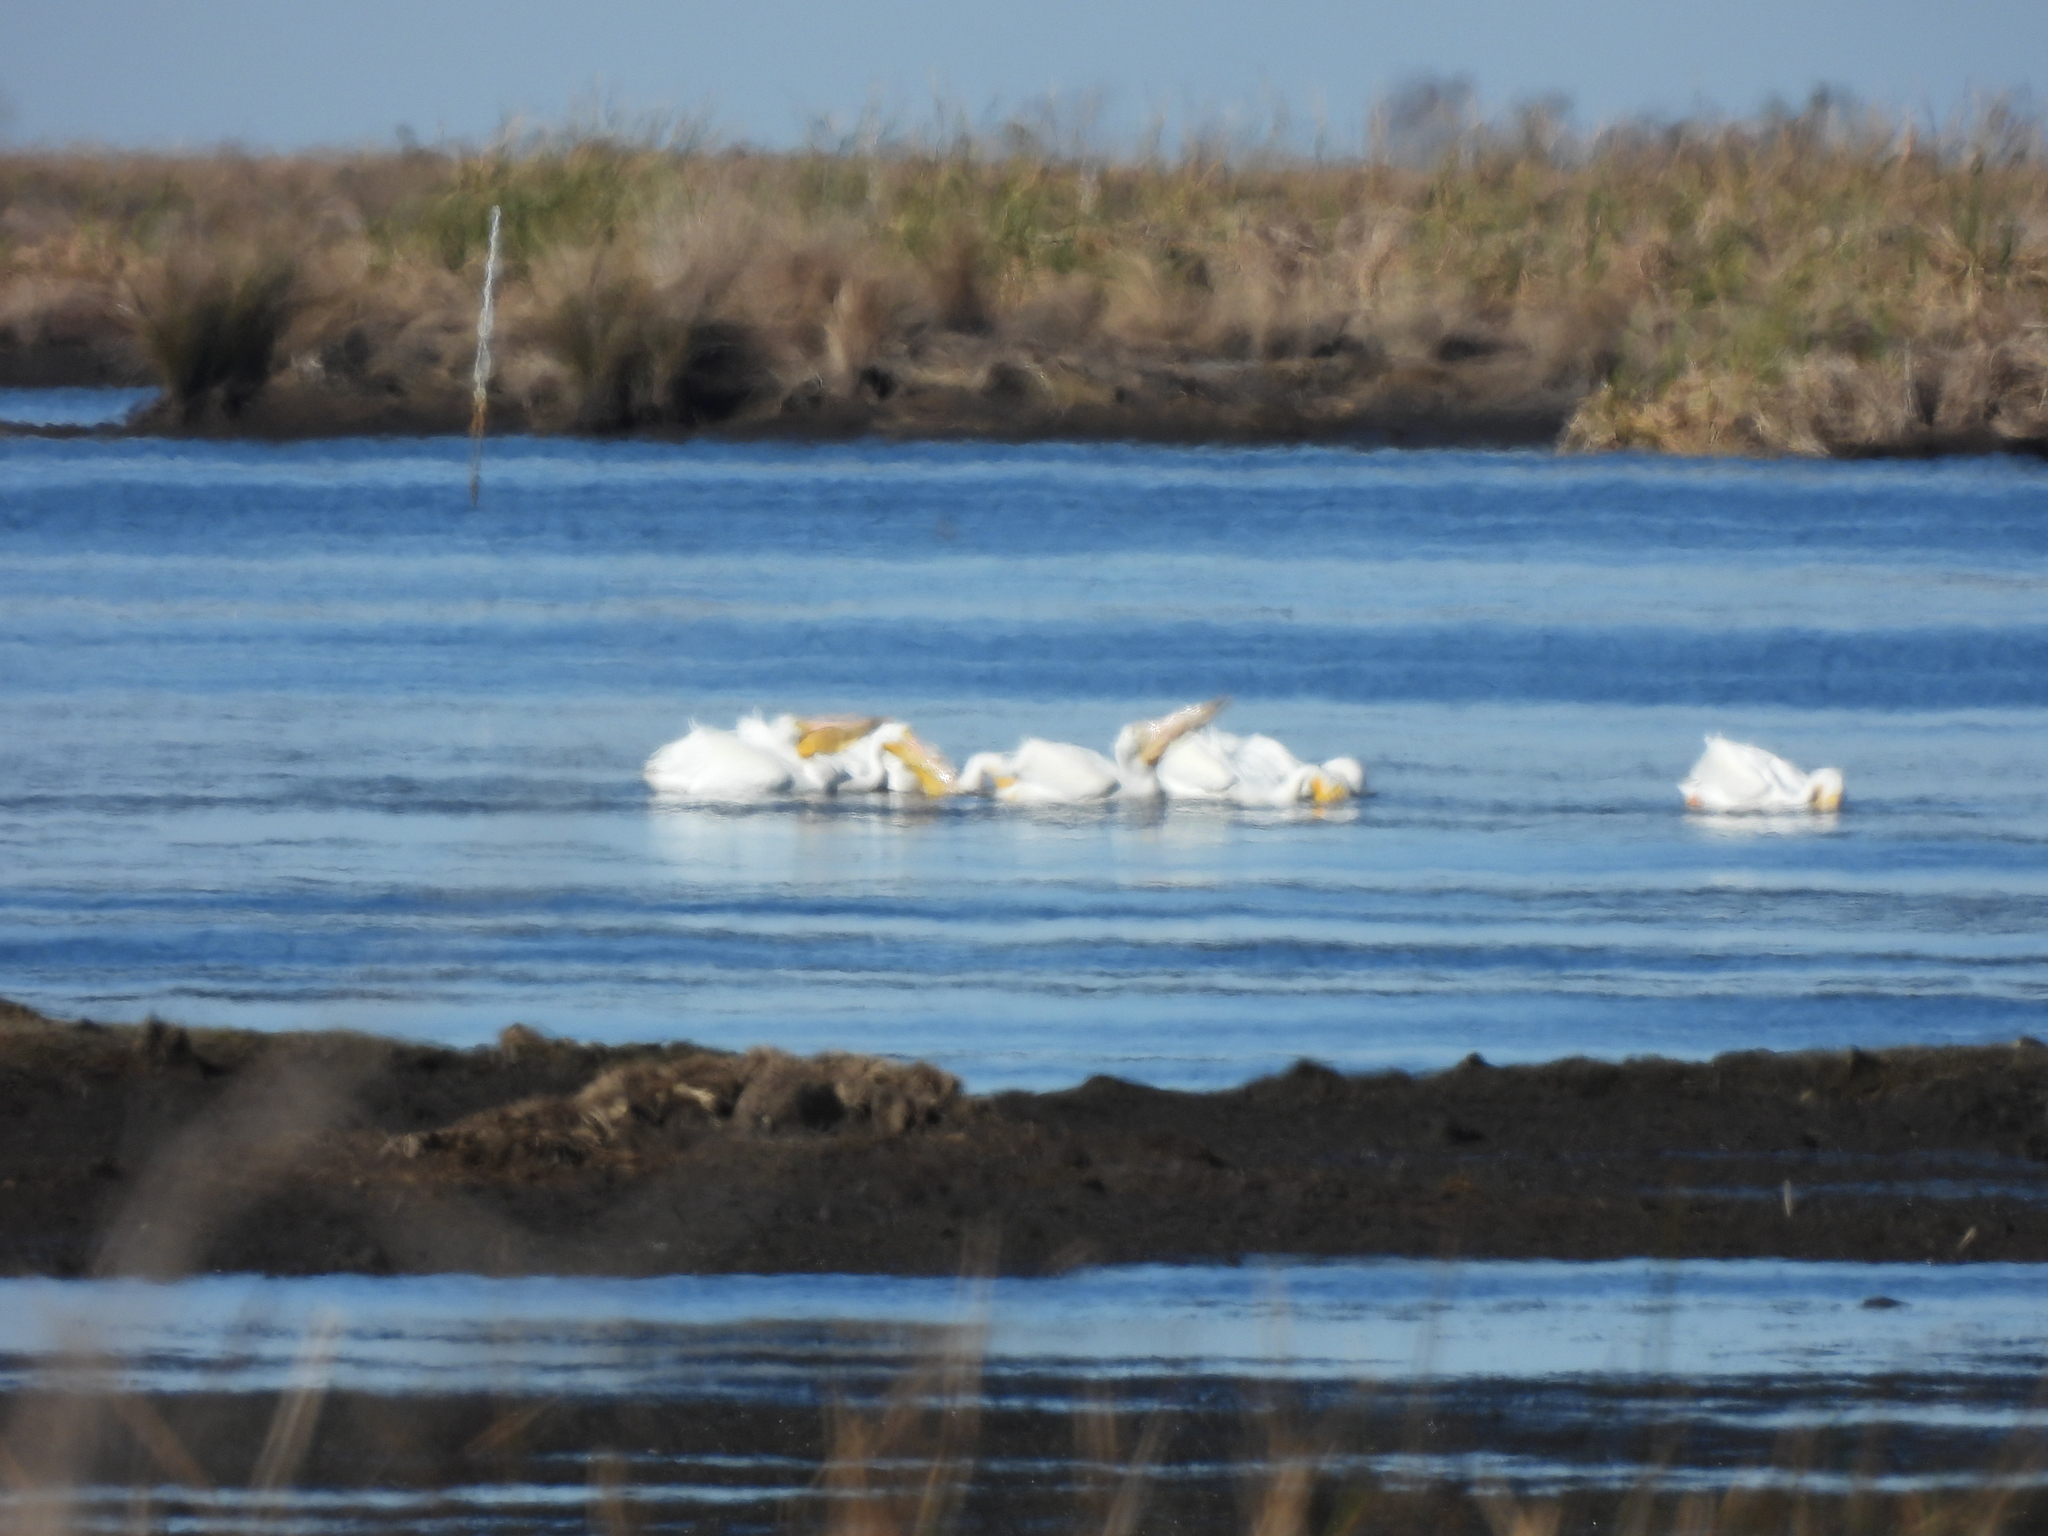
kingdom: Animalia
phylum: Chordata
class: Aves
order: Pelecaniformes
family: Pelecanidae
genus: Pelecanus
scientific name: Pelecanus erythrorhynchos
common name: American white pelican
